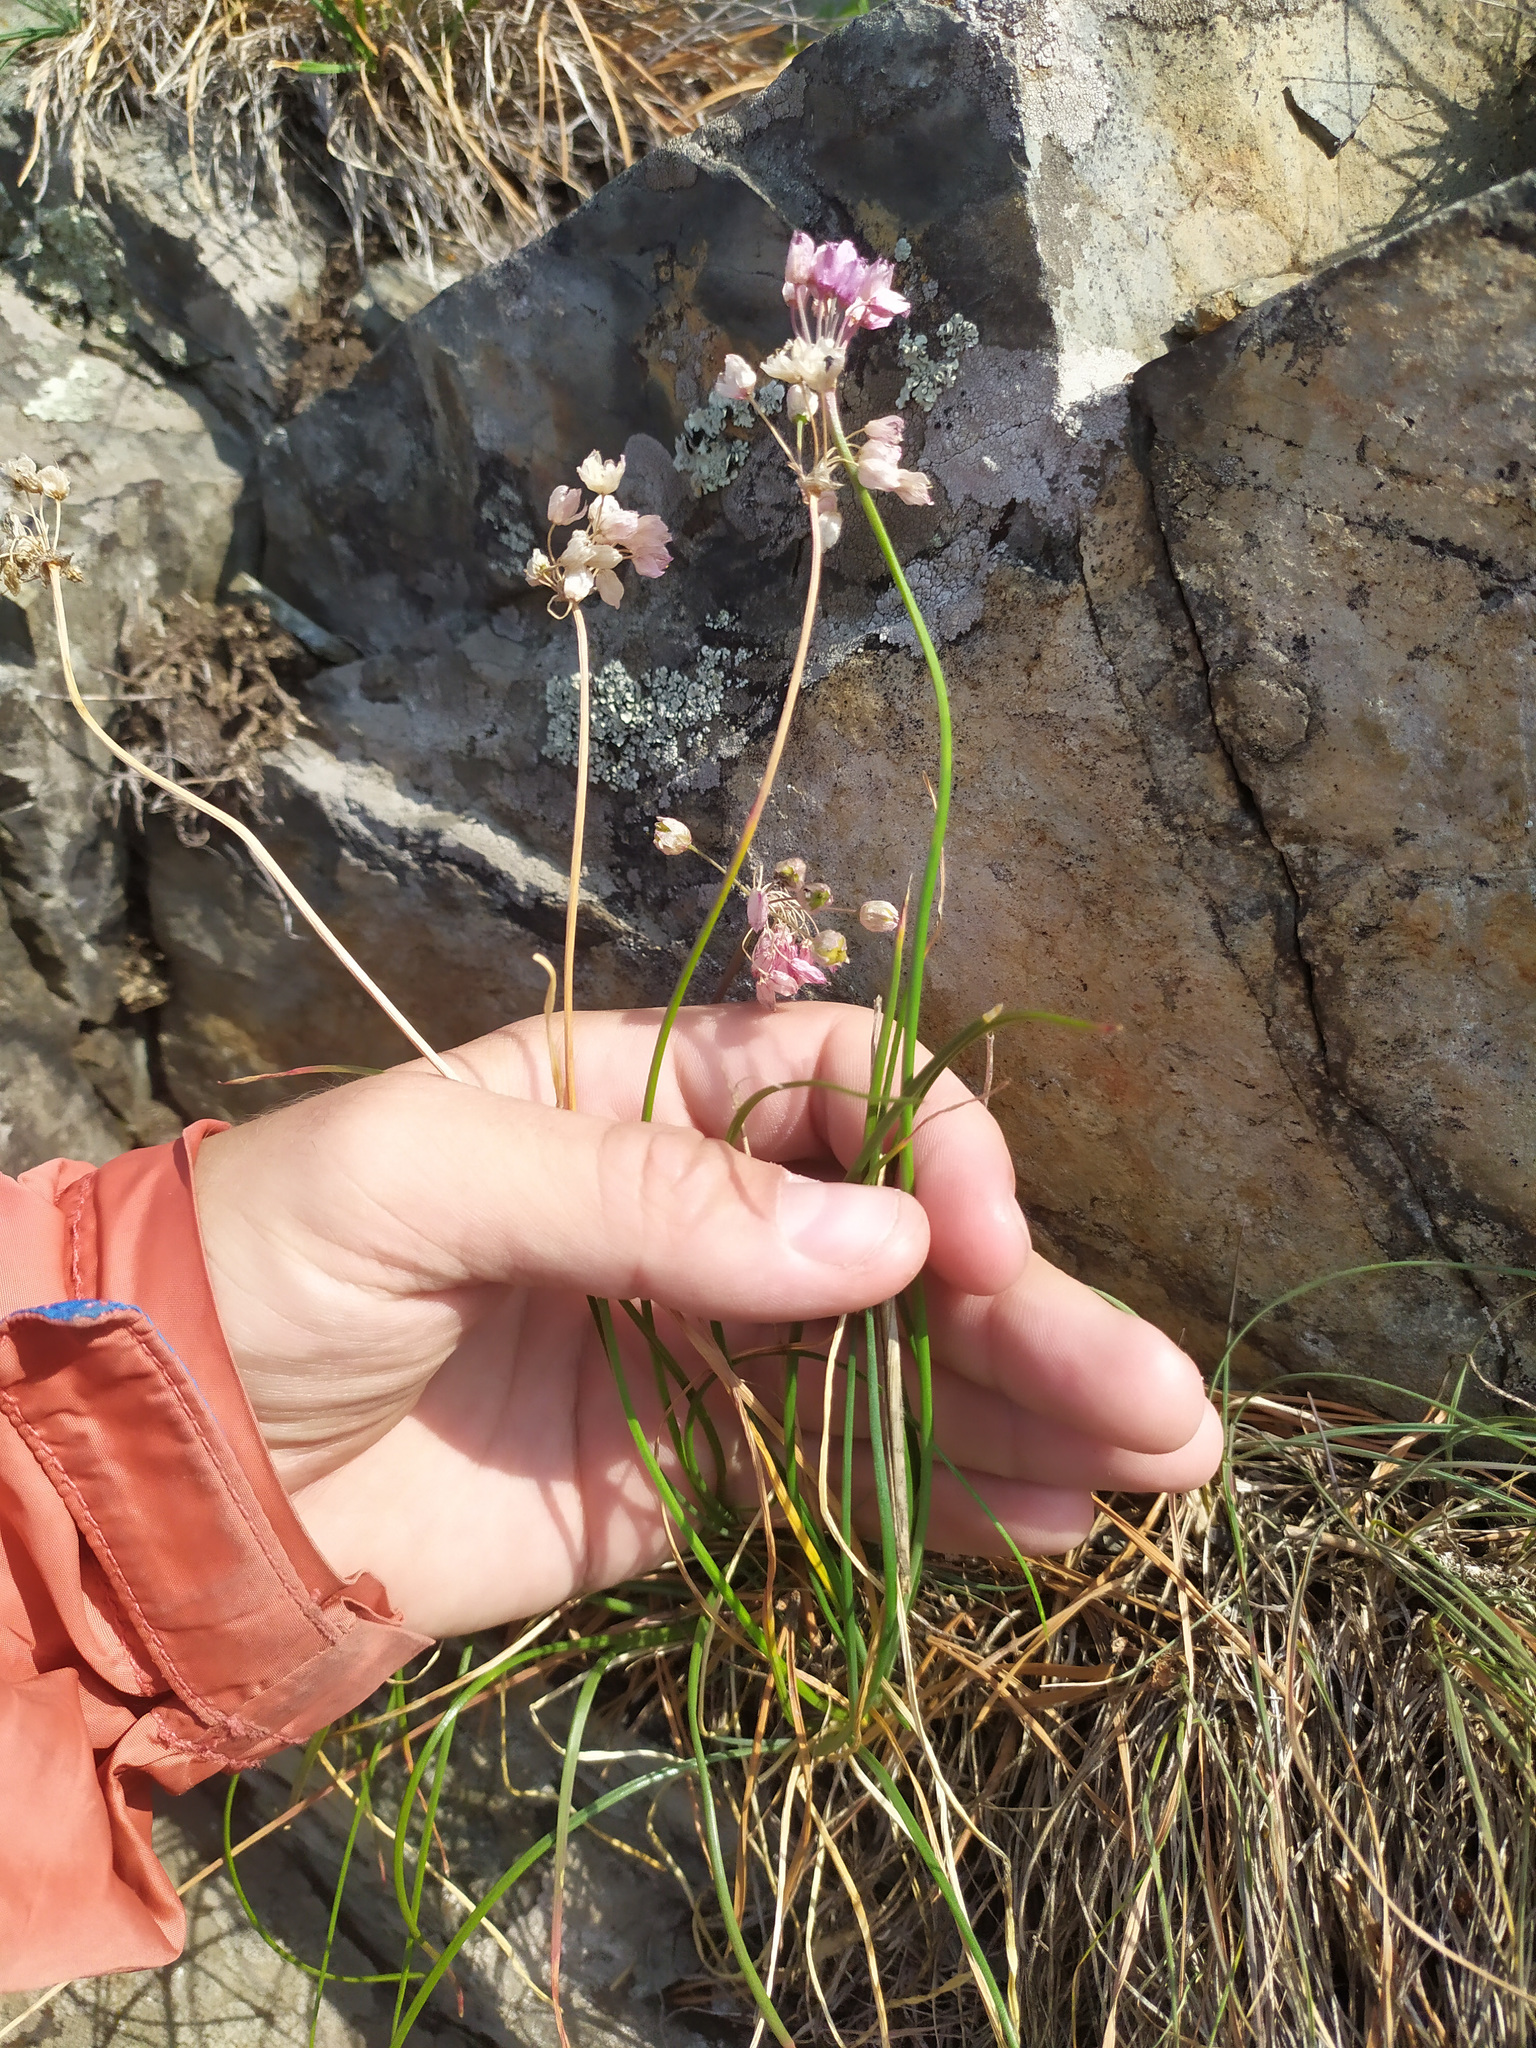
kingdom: Plantae
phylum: Tracheophyta
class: Liliopsida
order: Asparagales
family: Amaryllidaceae
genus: Allium
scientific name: Allium rubens
